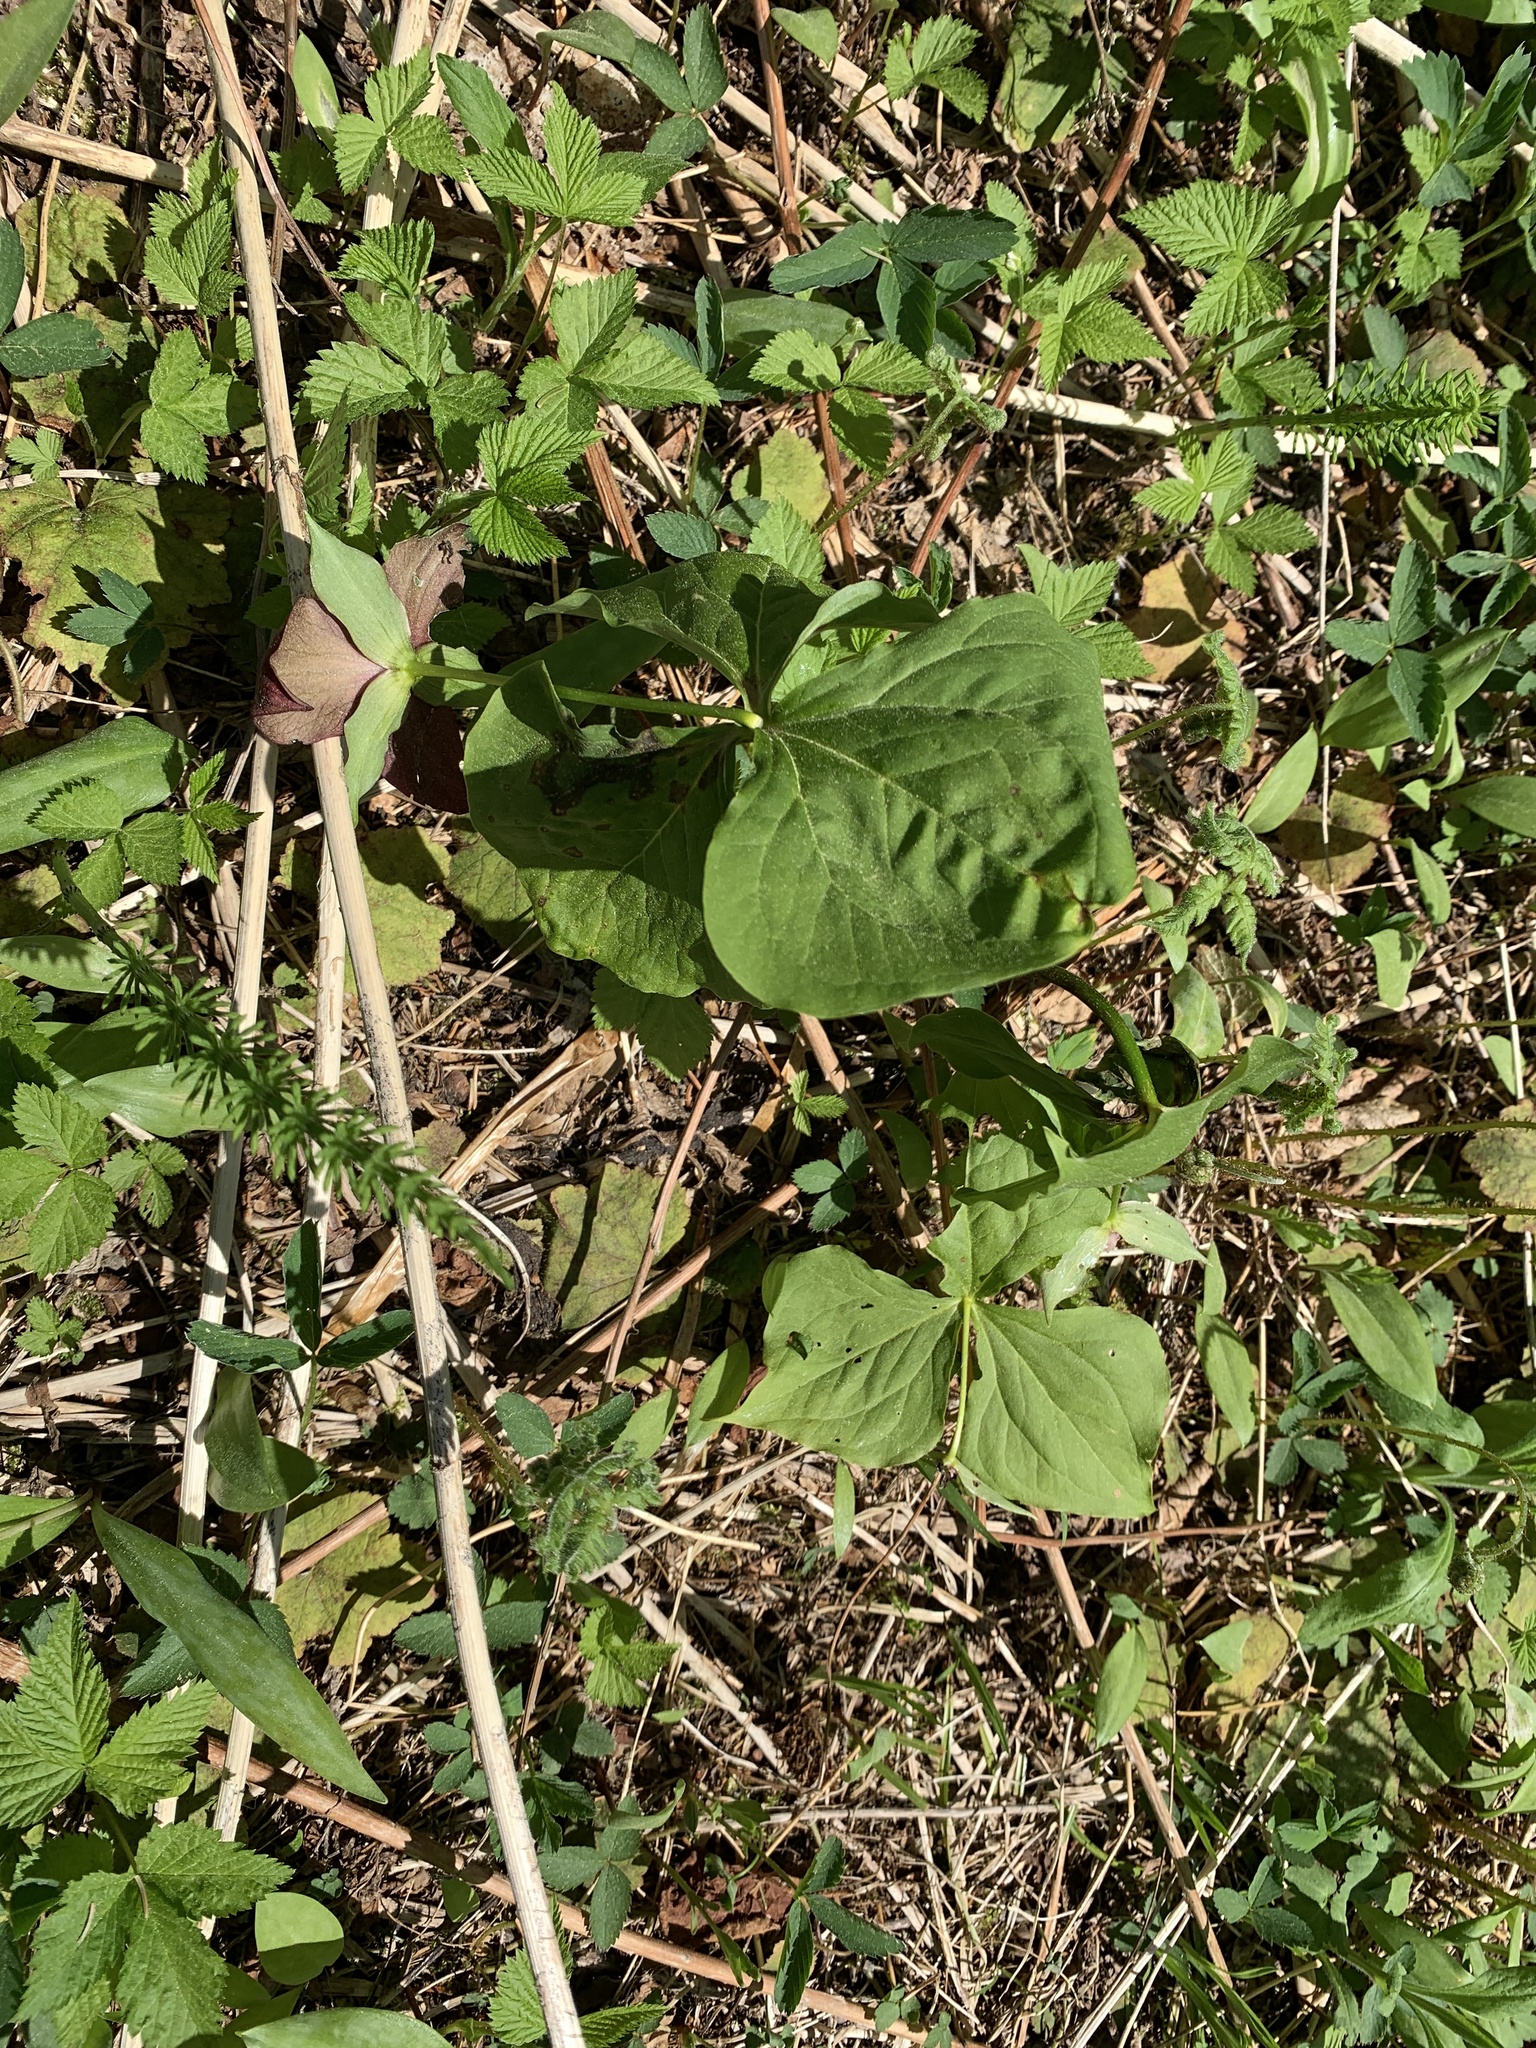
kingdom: Plantae
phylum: Tracheophyta
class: Liliopsida
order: Liliales
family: Melanthiaceae
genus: Trillium
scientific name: Trillium erectum
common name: Purple trillium
